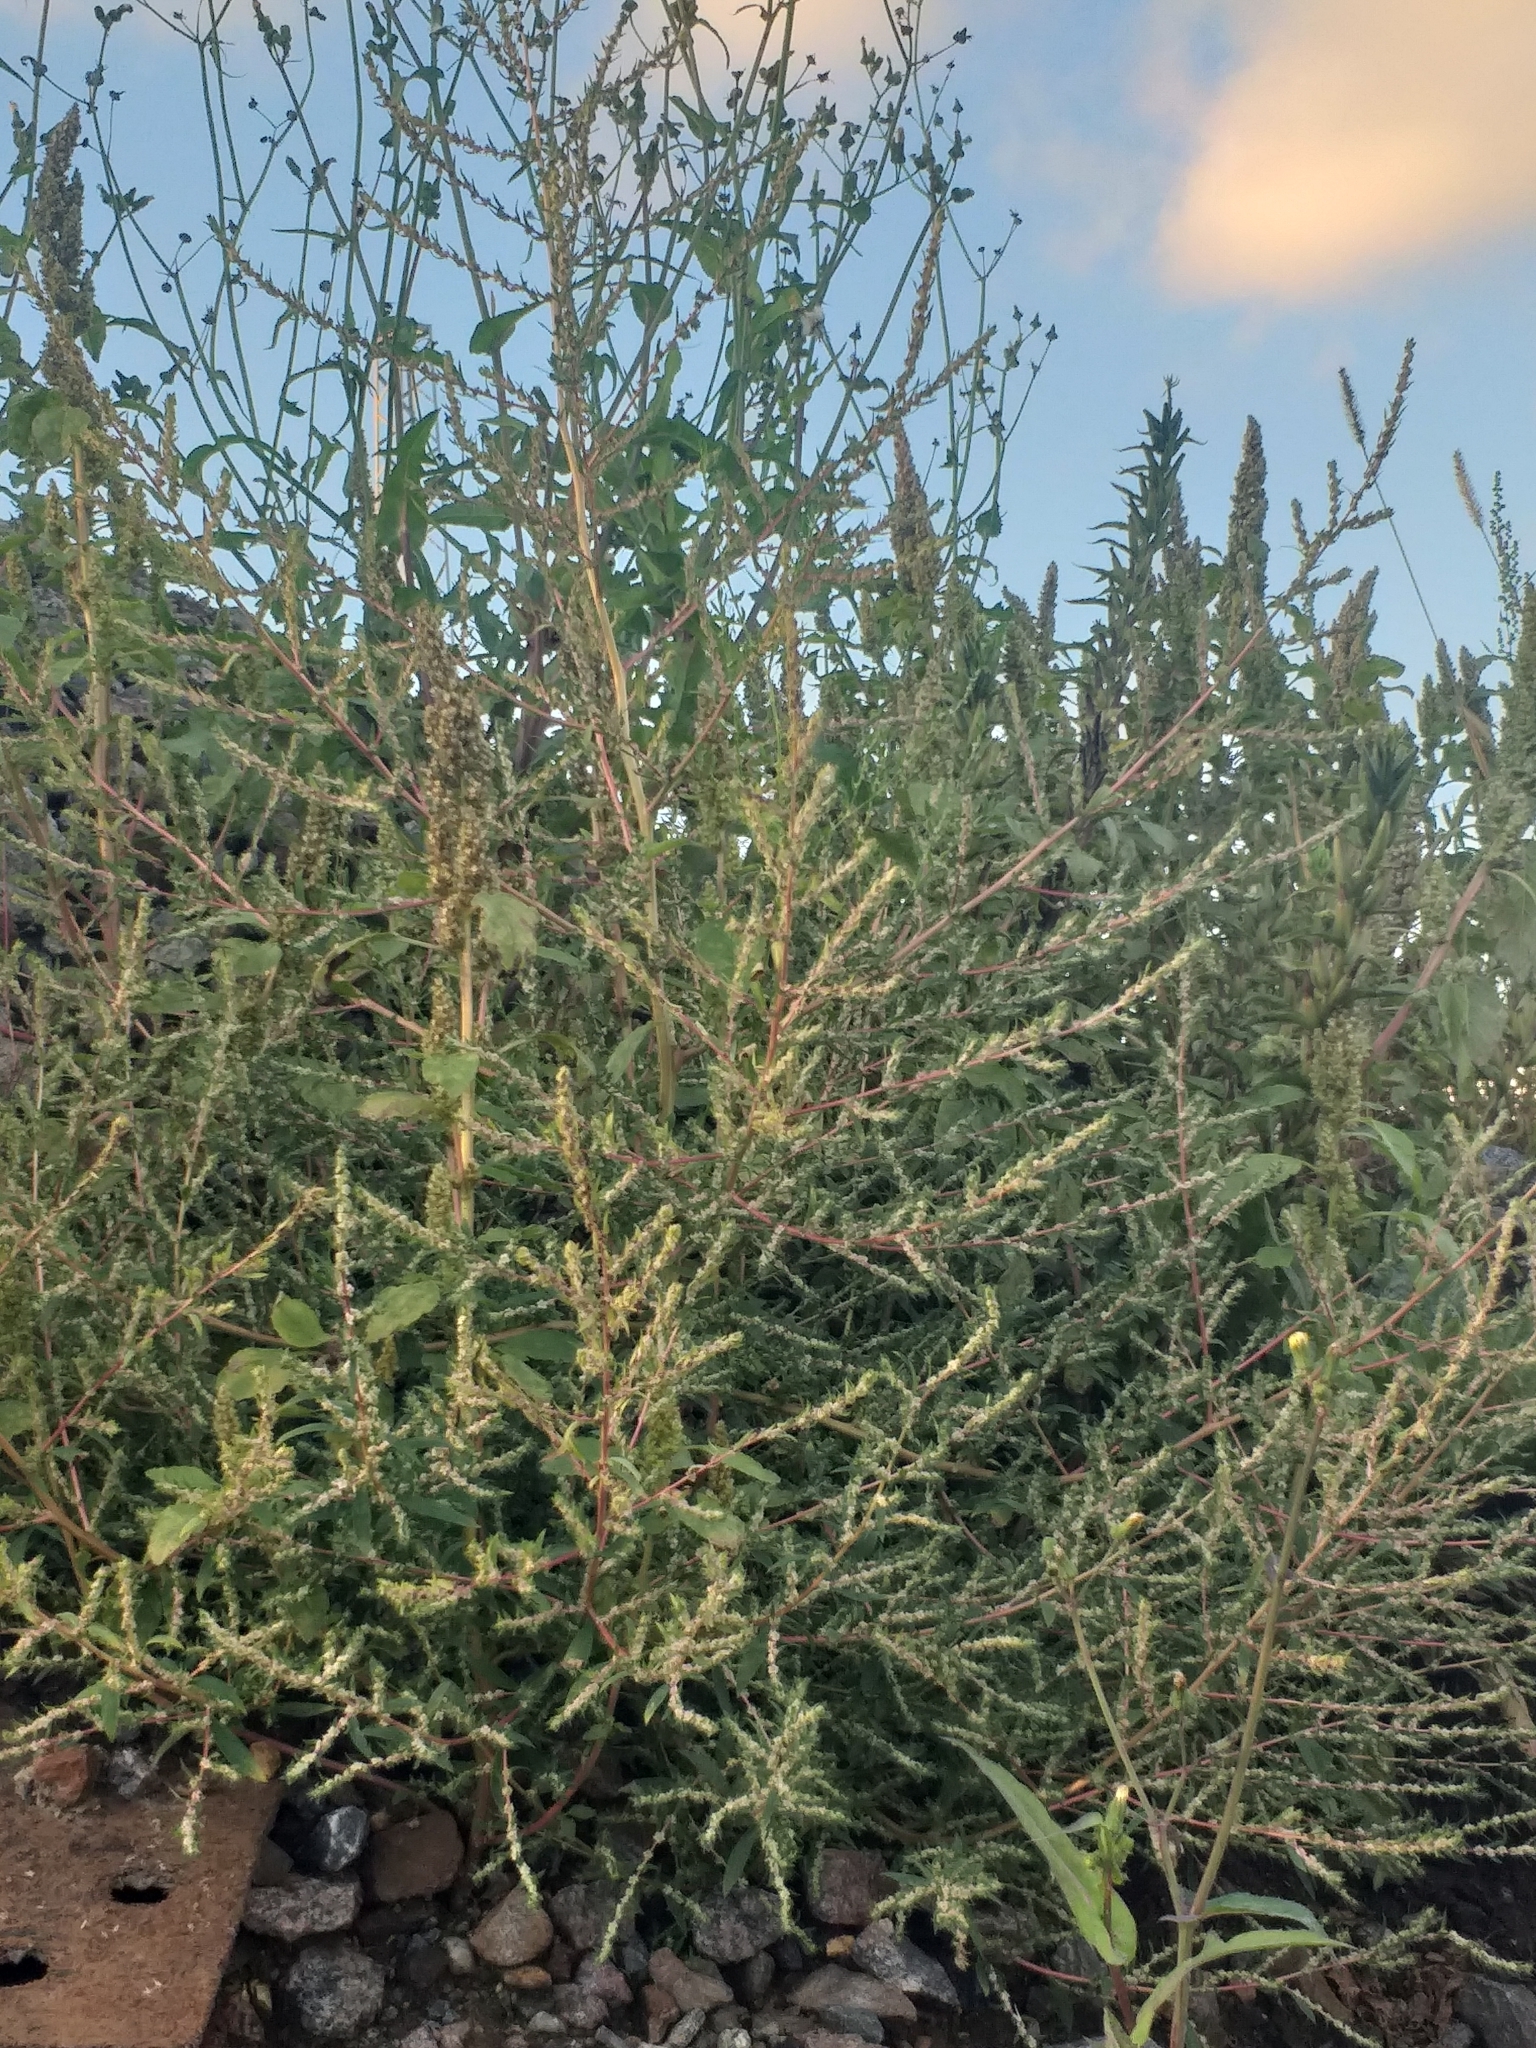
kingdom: Plantae
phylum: Tracheophyta
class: Magnoliopsida
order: Caryophyllales
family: Amaranthaceae
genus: Bassia
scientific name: Bassia scoparia
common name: Belvedere
